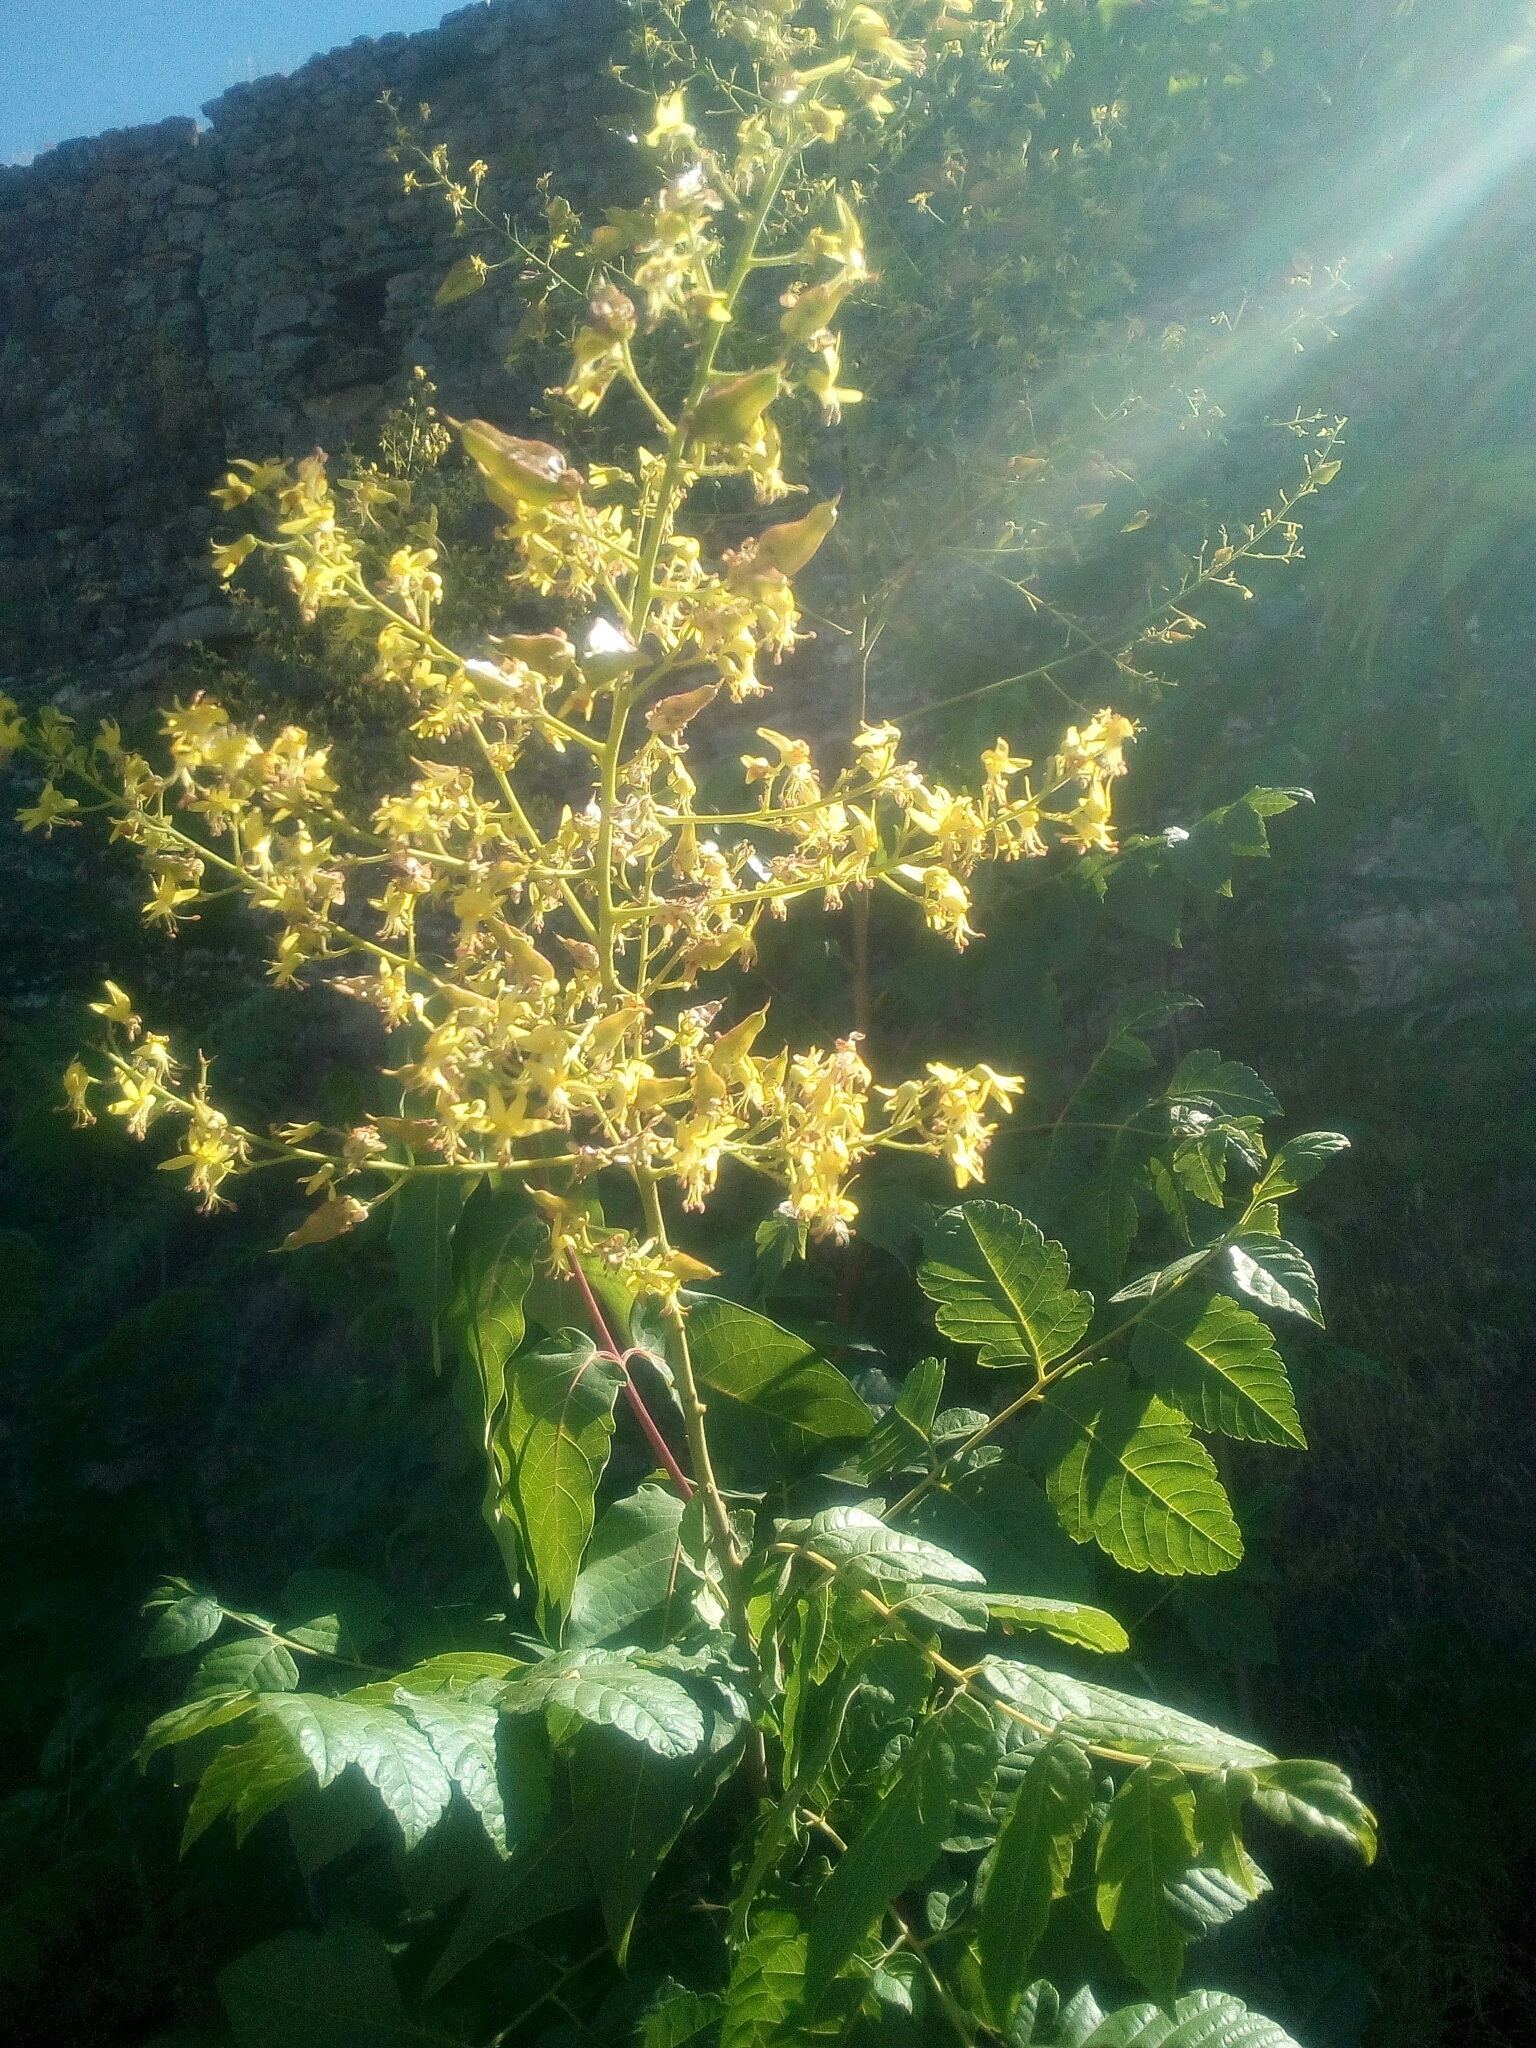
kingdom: Plantae
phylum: Tracheophyta
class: Magnoliopsida
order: Sapindales
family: Sapindaceae
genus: Koelreuteria
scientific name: Koelreuteria paniculata
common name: Pride-of-india
